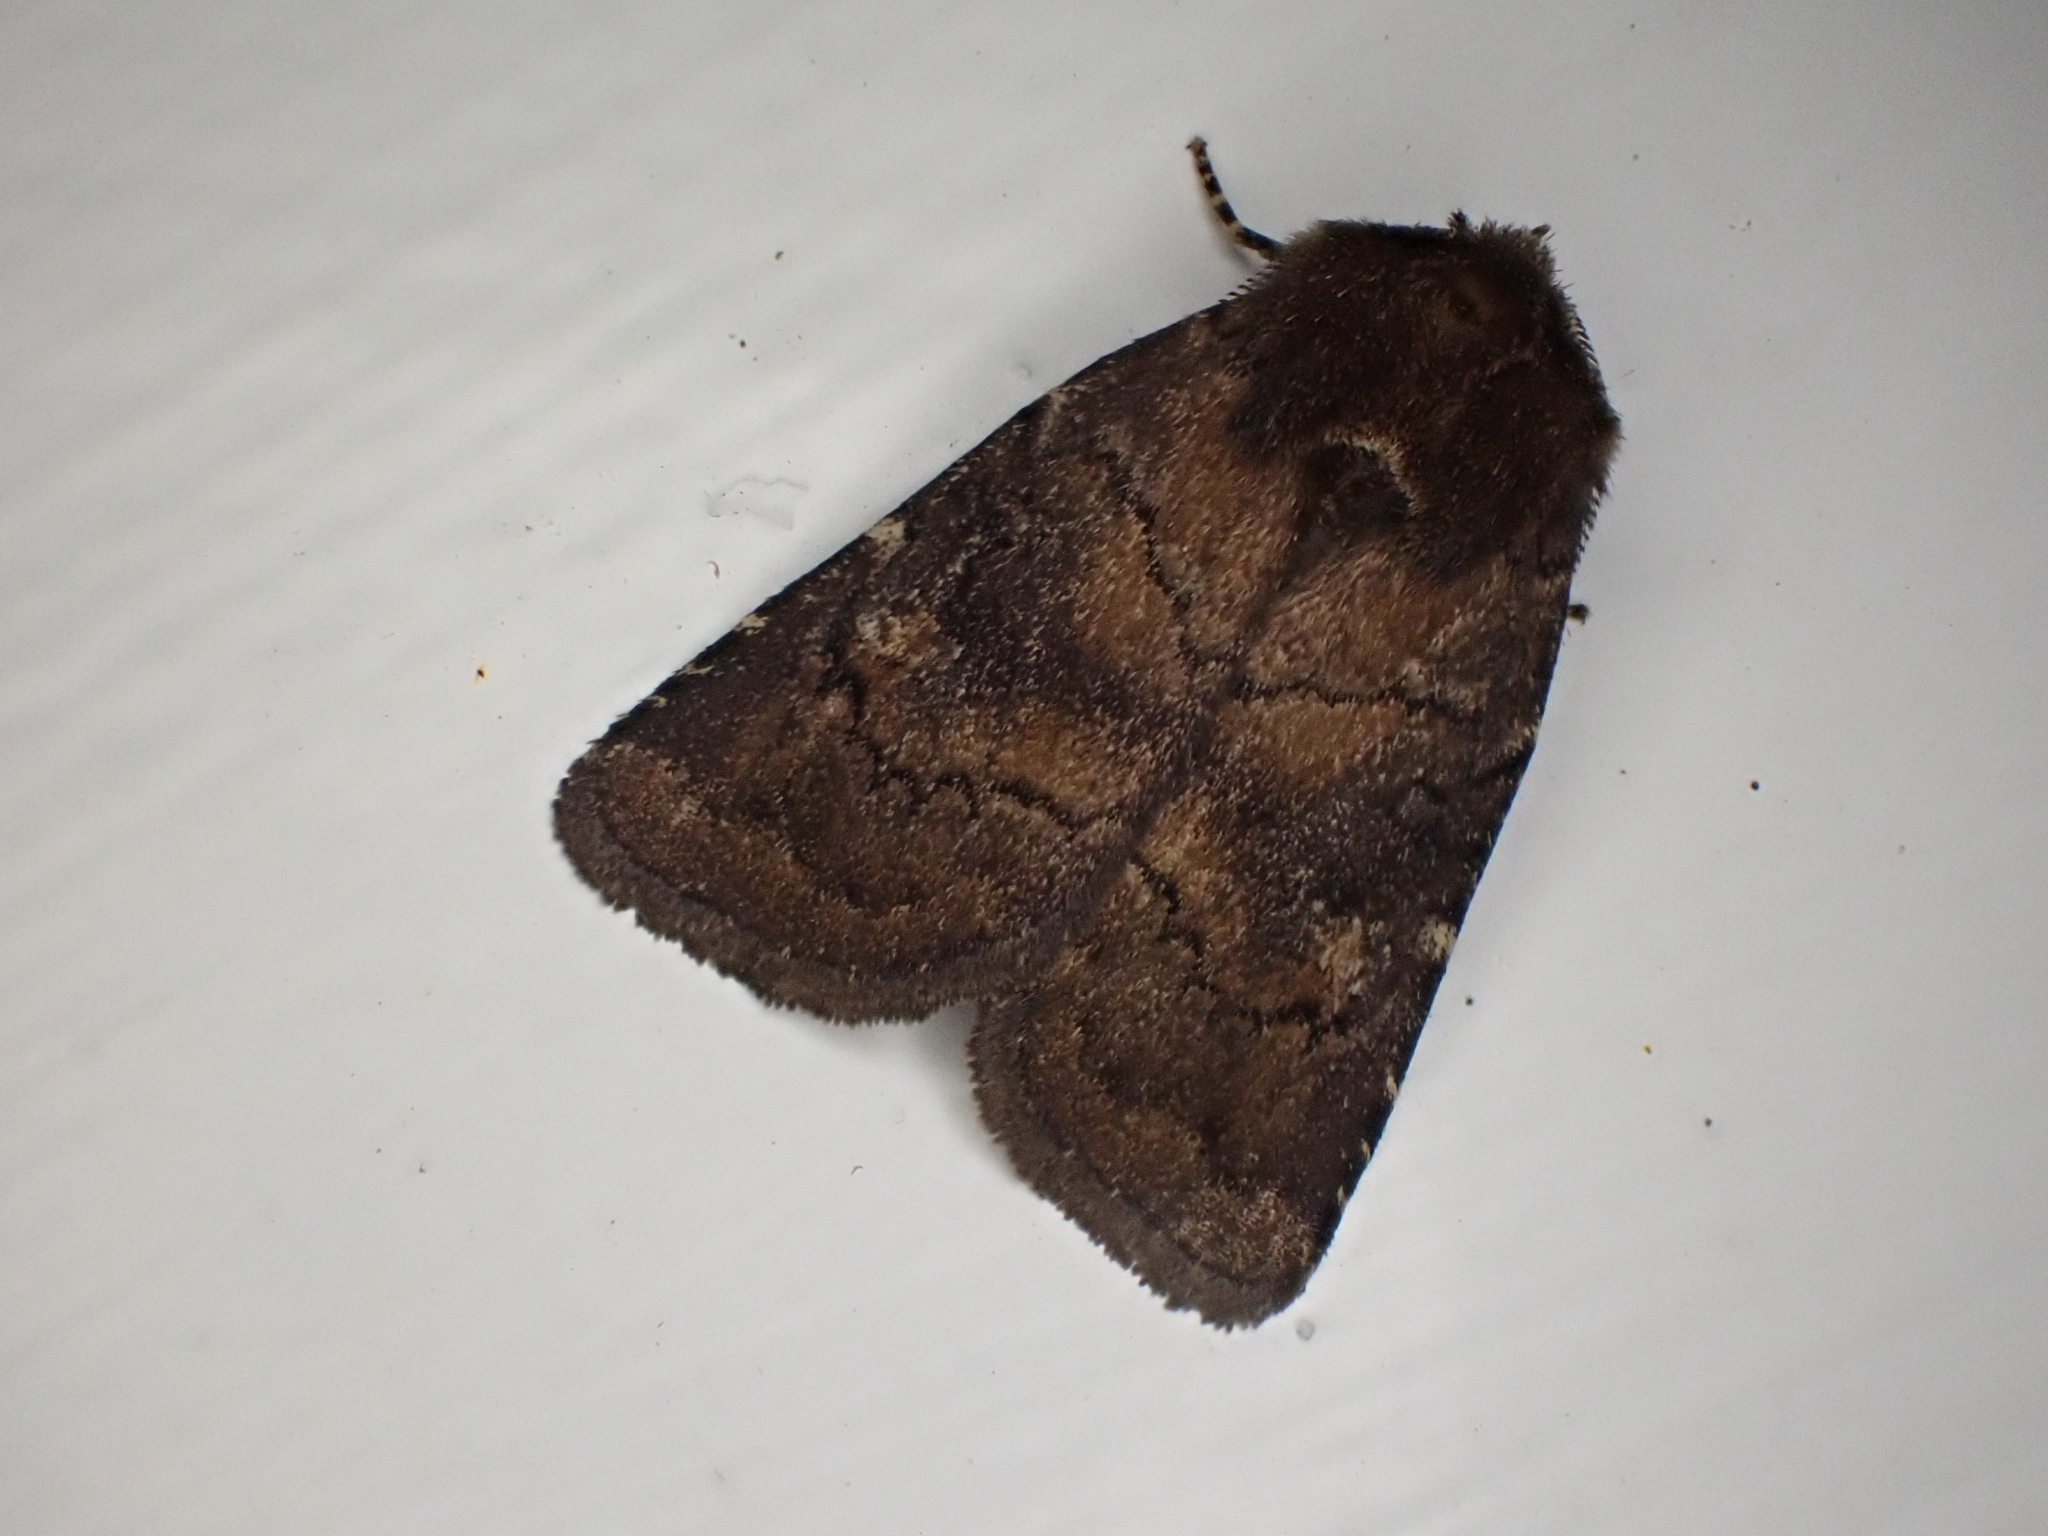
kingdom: Animalia
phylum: Arthropoda
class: Insecta
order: Lepidoptera
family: Noctuidae
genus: Charanyca
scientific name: Charanyca ferruginea
